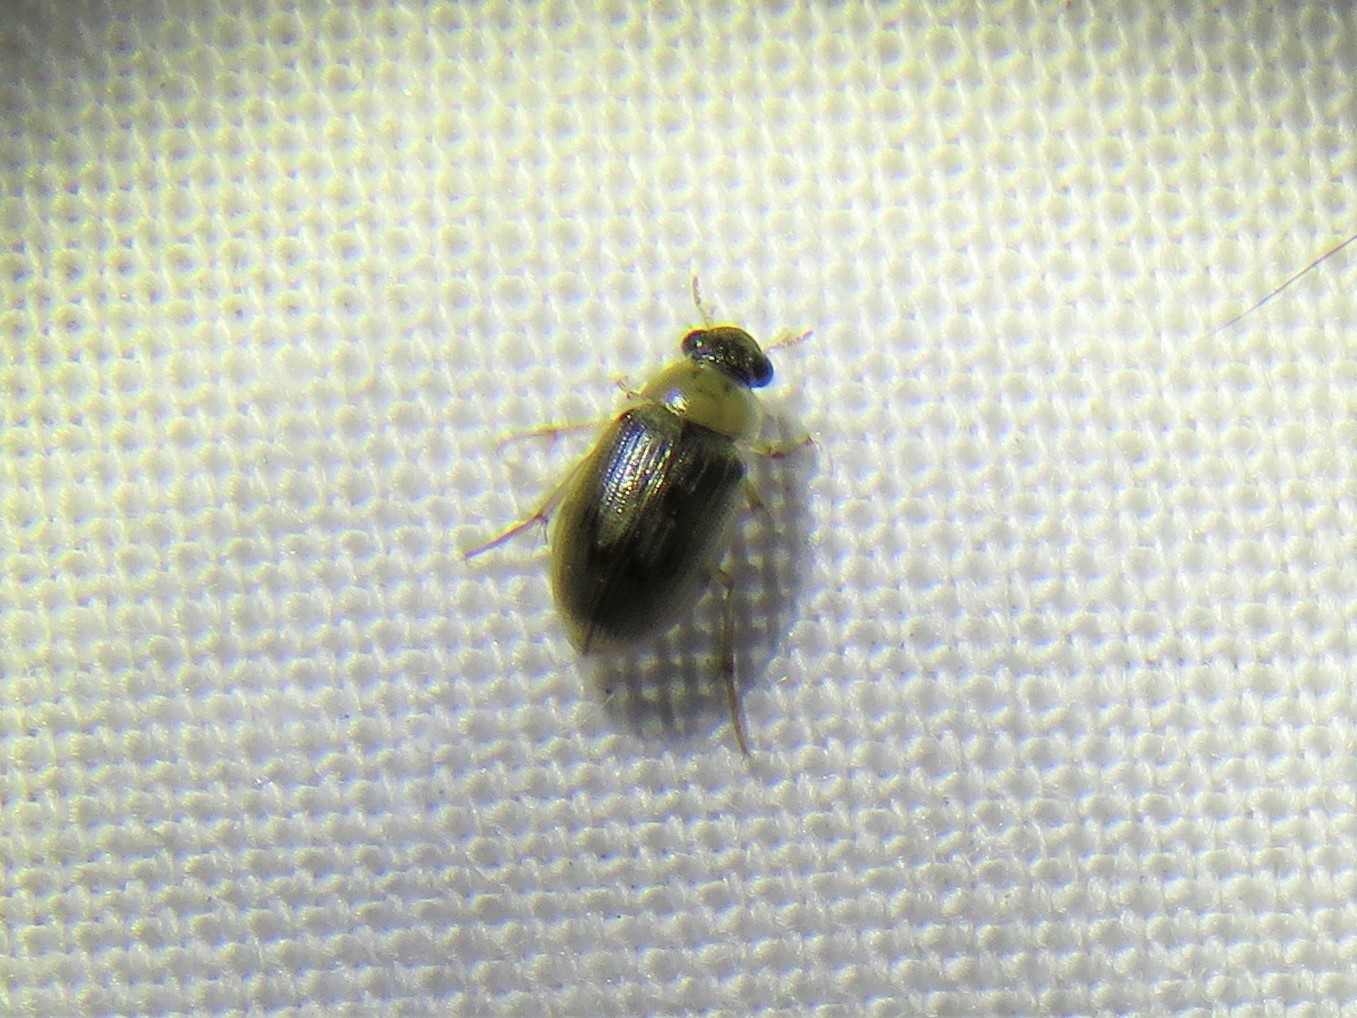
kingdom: Animalia
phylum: Arthropoda
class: Insecta
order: Coleoptera
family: Hydrophilidae
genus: Berosus
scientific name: Berosus
